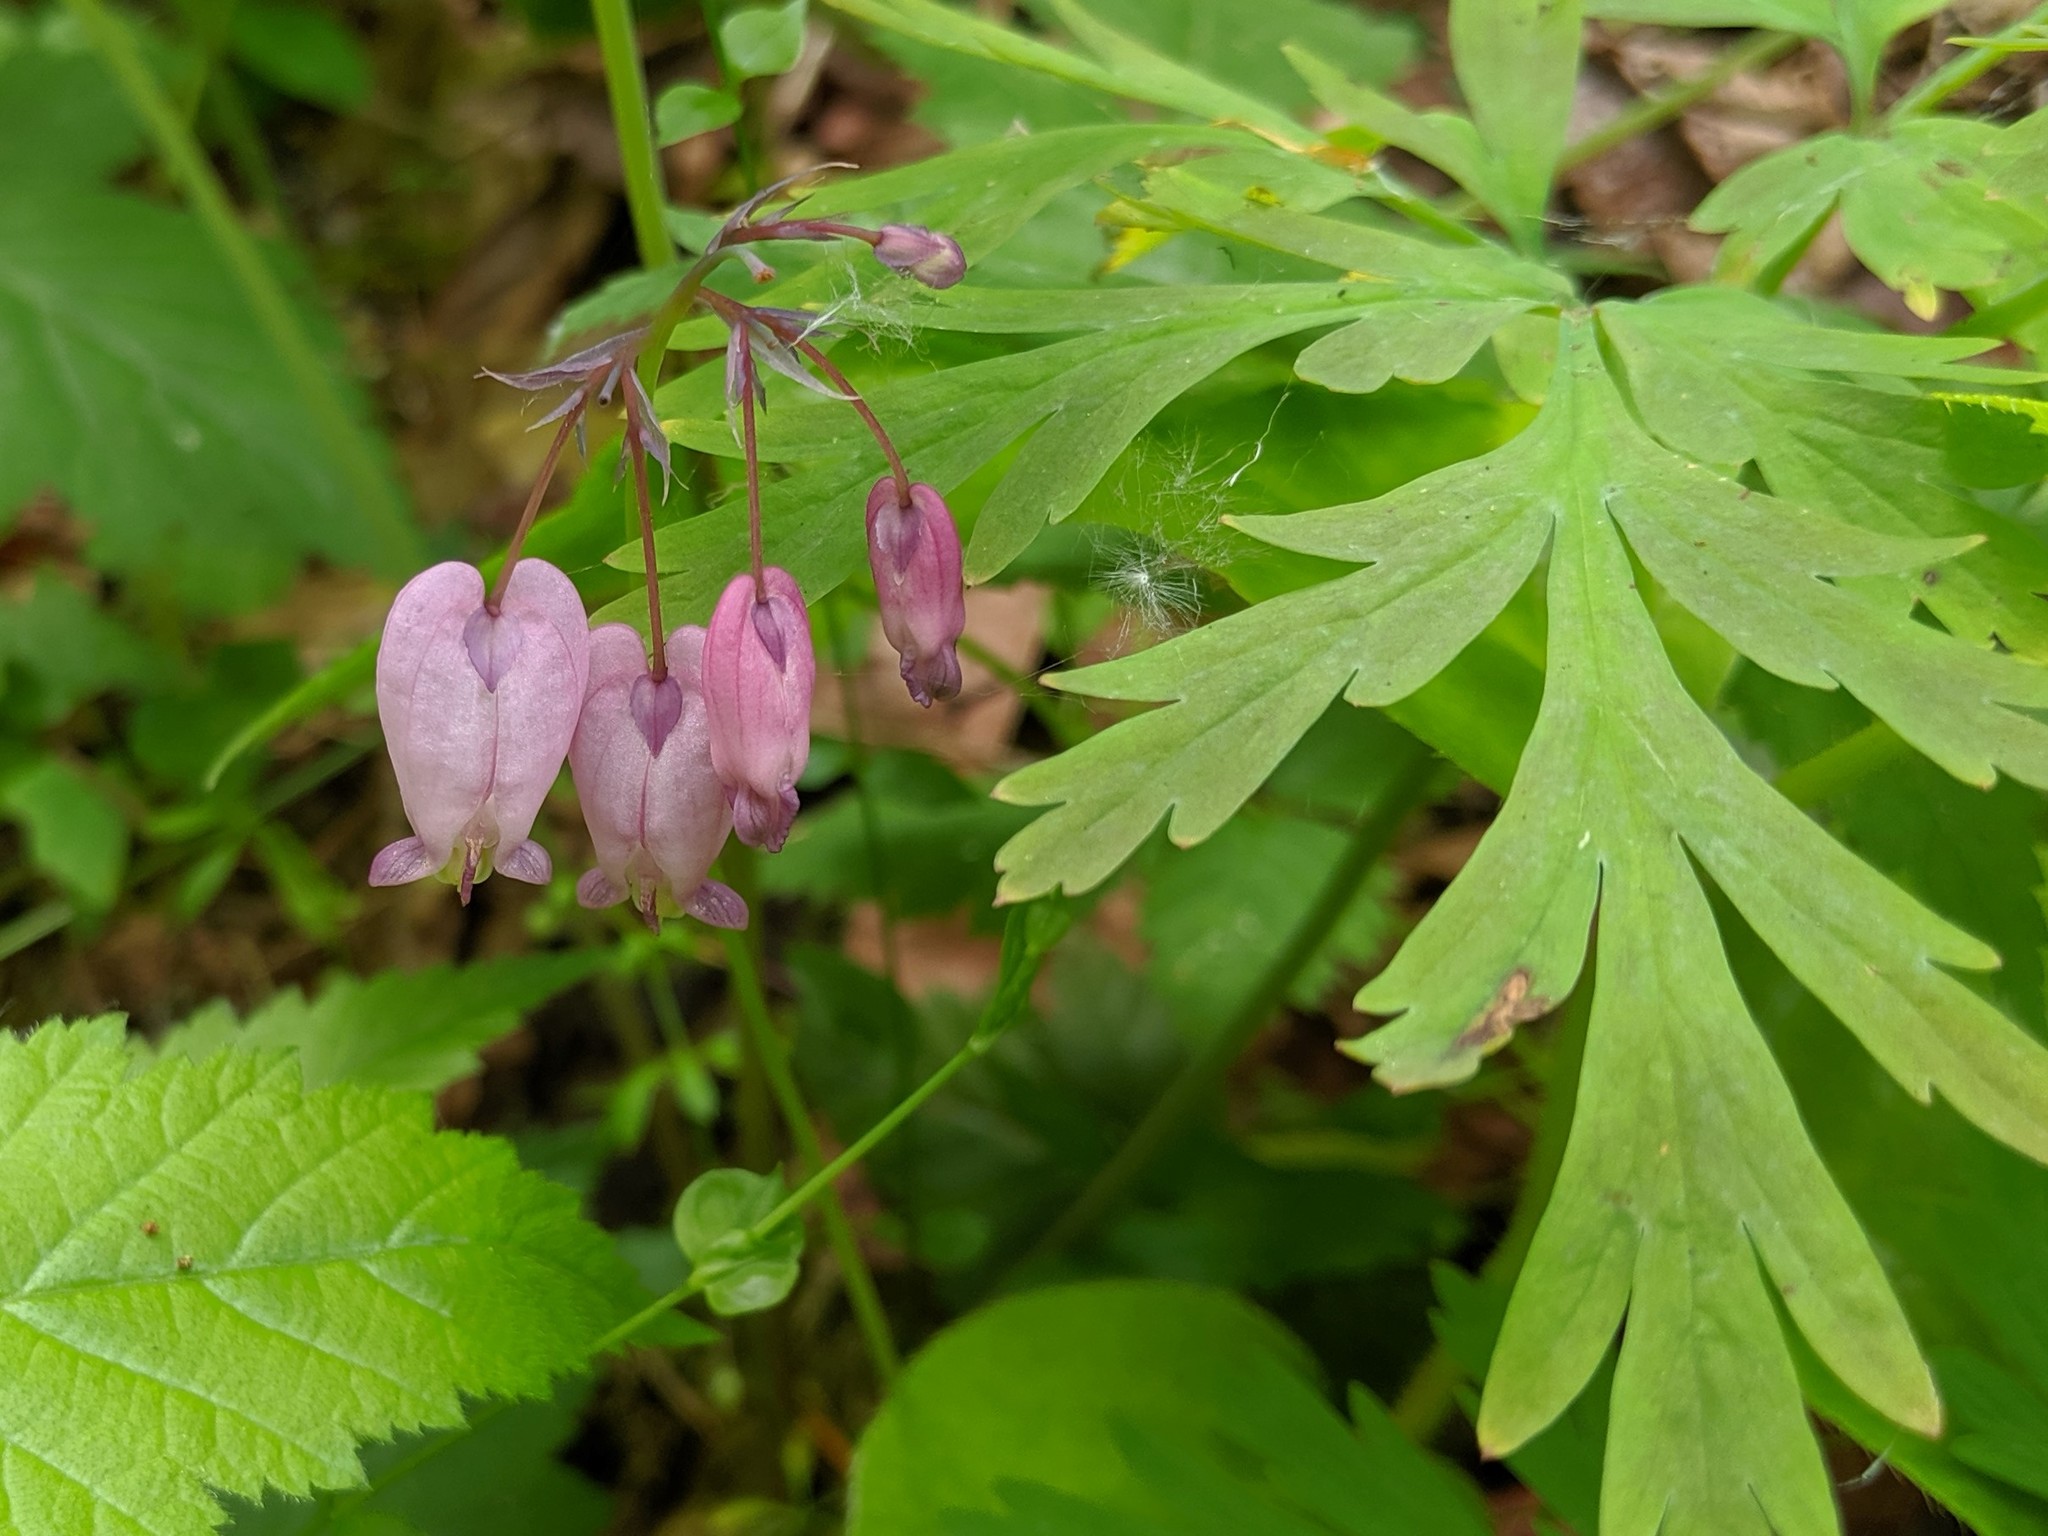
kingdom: Plantae
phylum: Tracheophyta
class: Magnoliopsida
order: Ranunculales
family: Papaveraceae
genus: Dicentra
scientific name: Dicentra formosa
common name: Bleeding-heart
